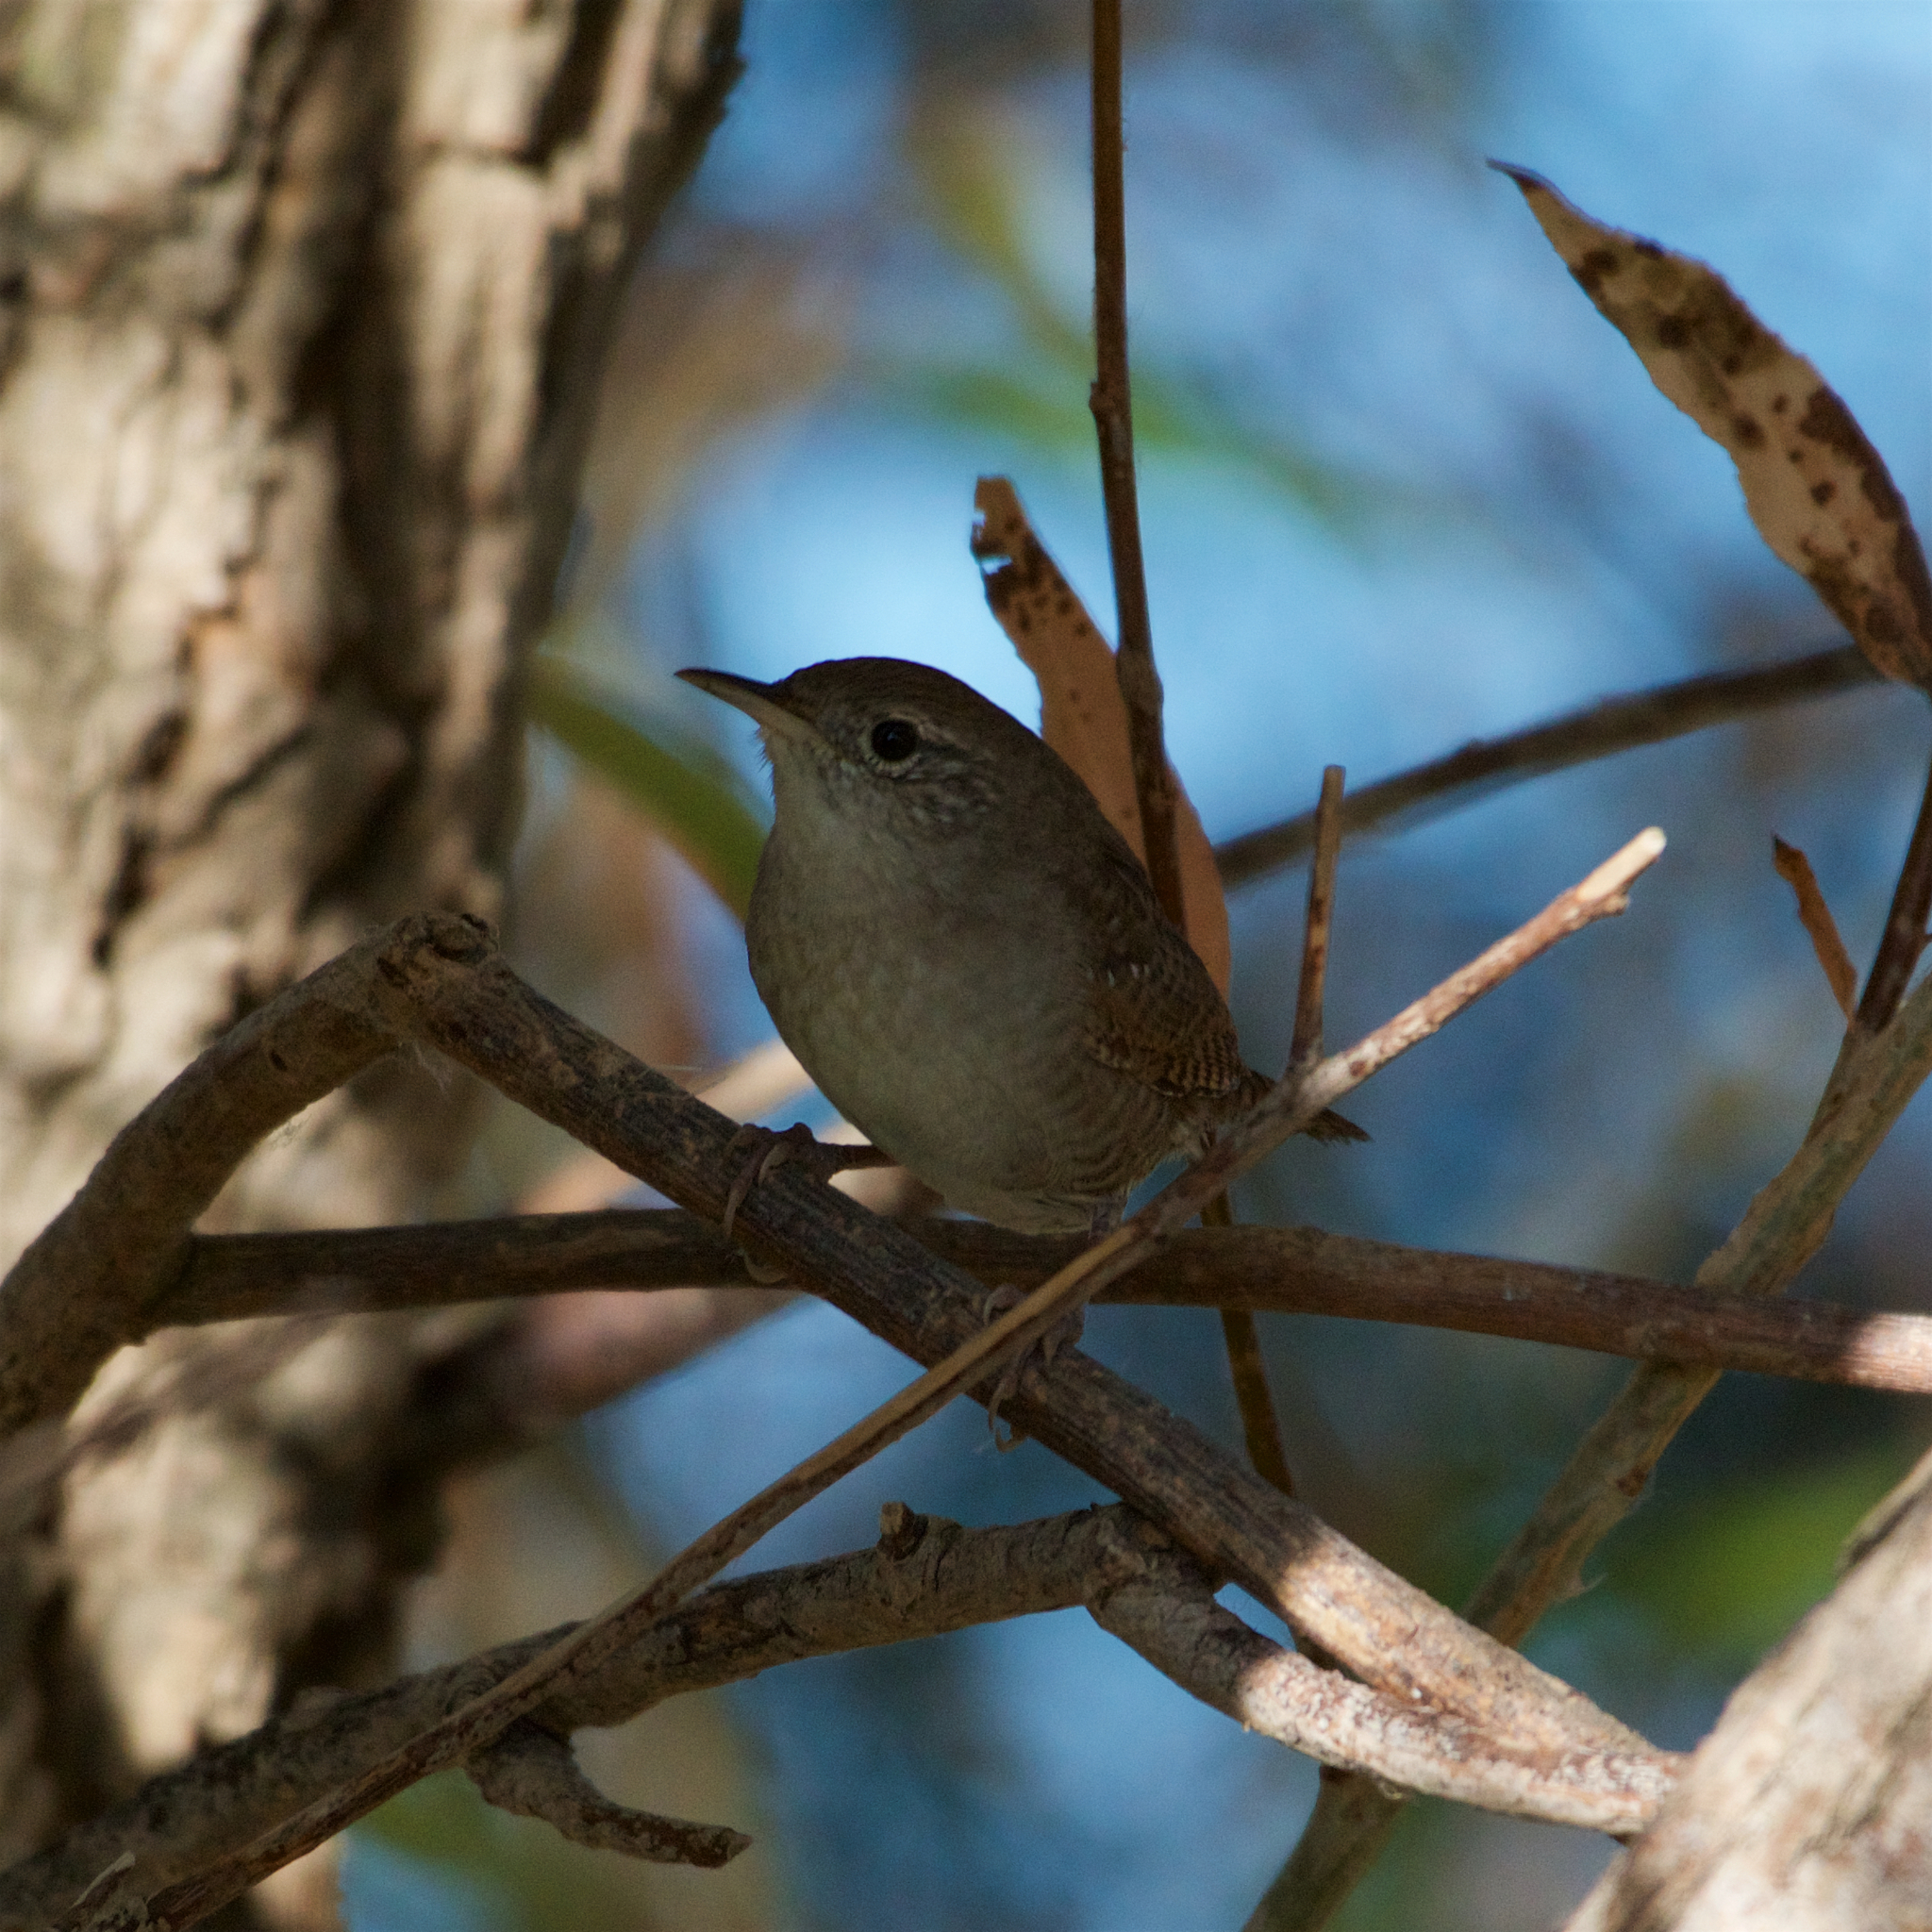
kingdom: Animalia
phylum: Chordata
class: Aves
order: Passeriformes
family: Troglodytidae
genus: Troglodytes
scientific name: Troglodytes aedon
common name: House wren
